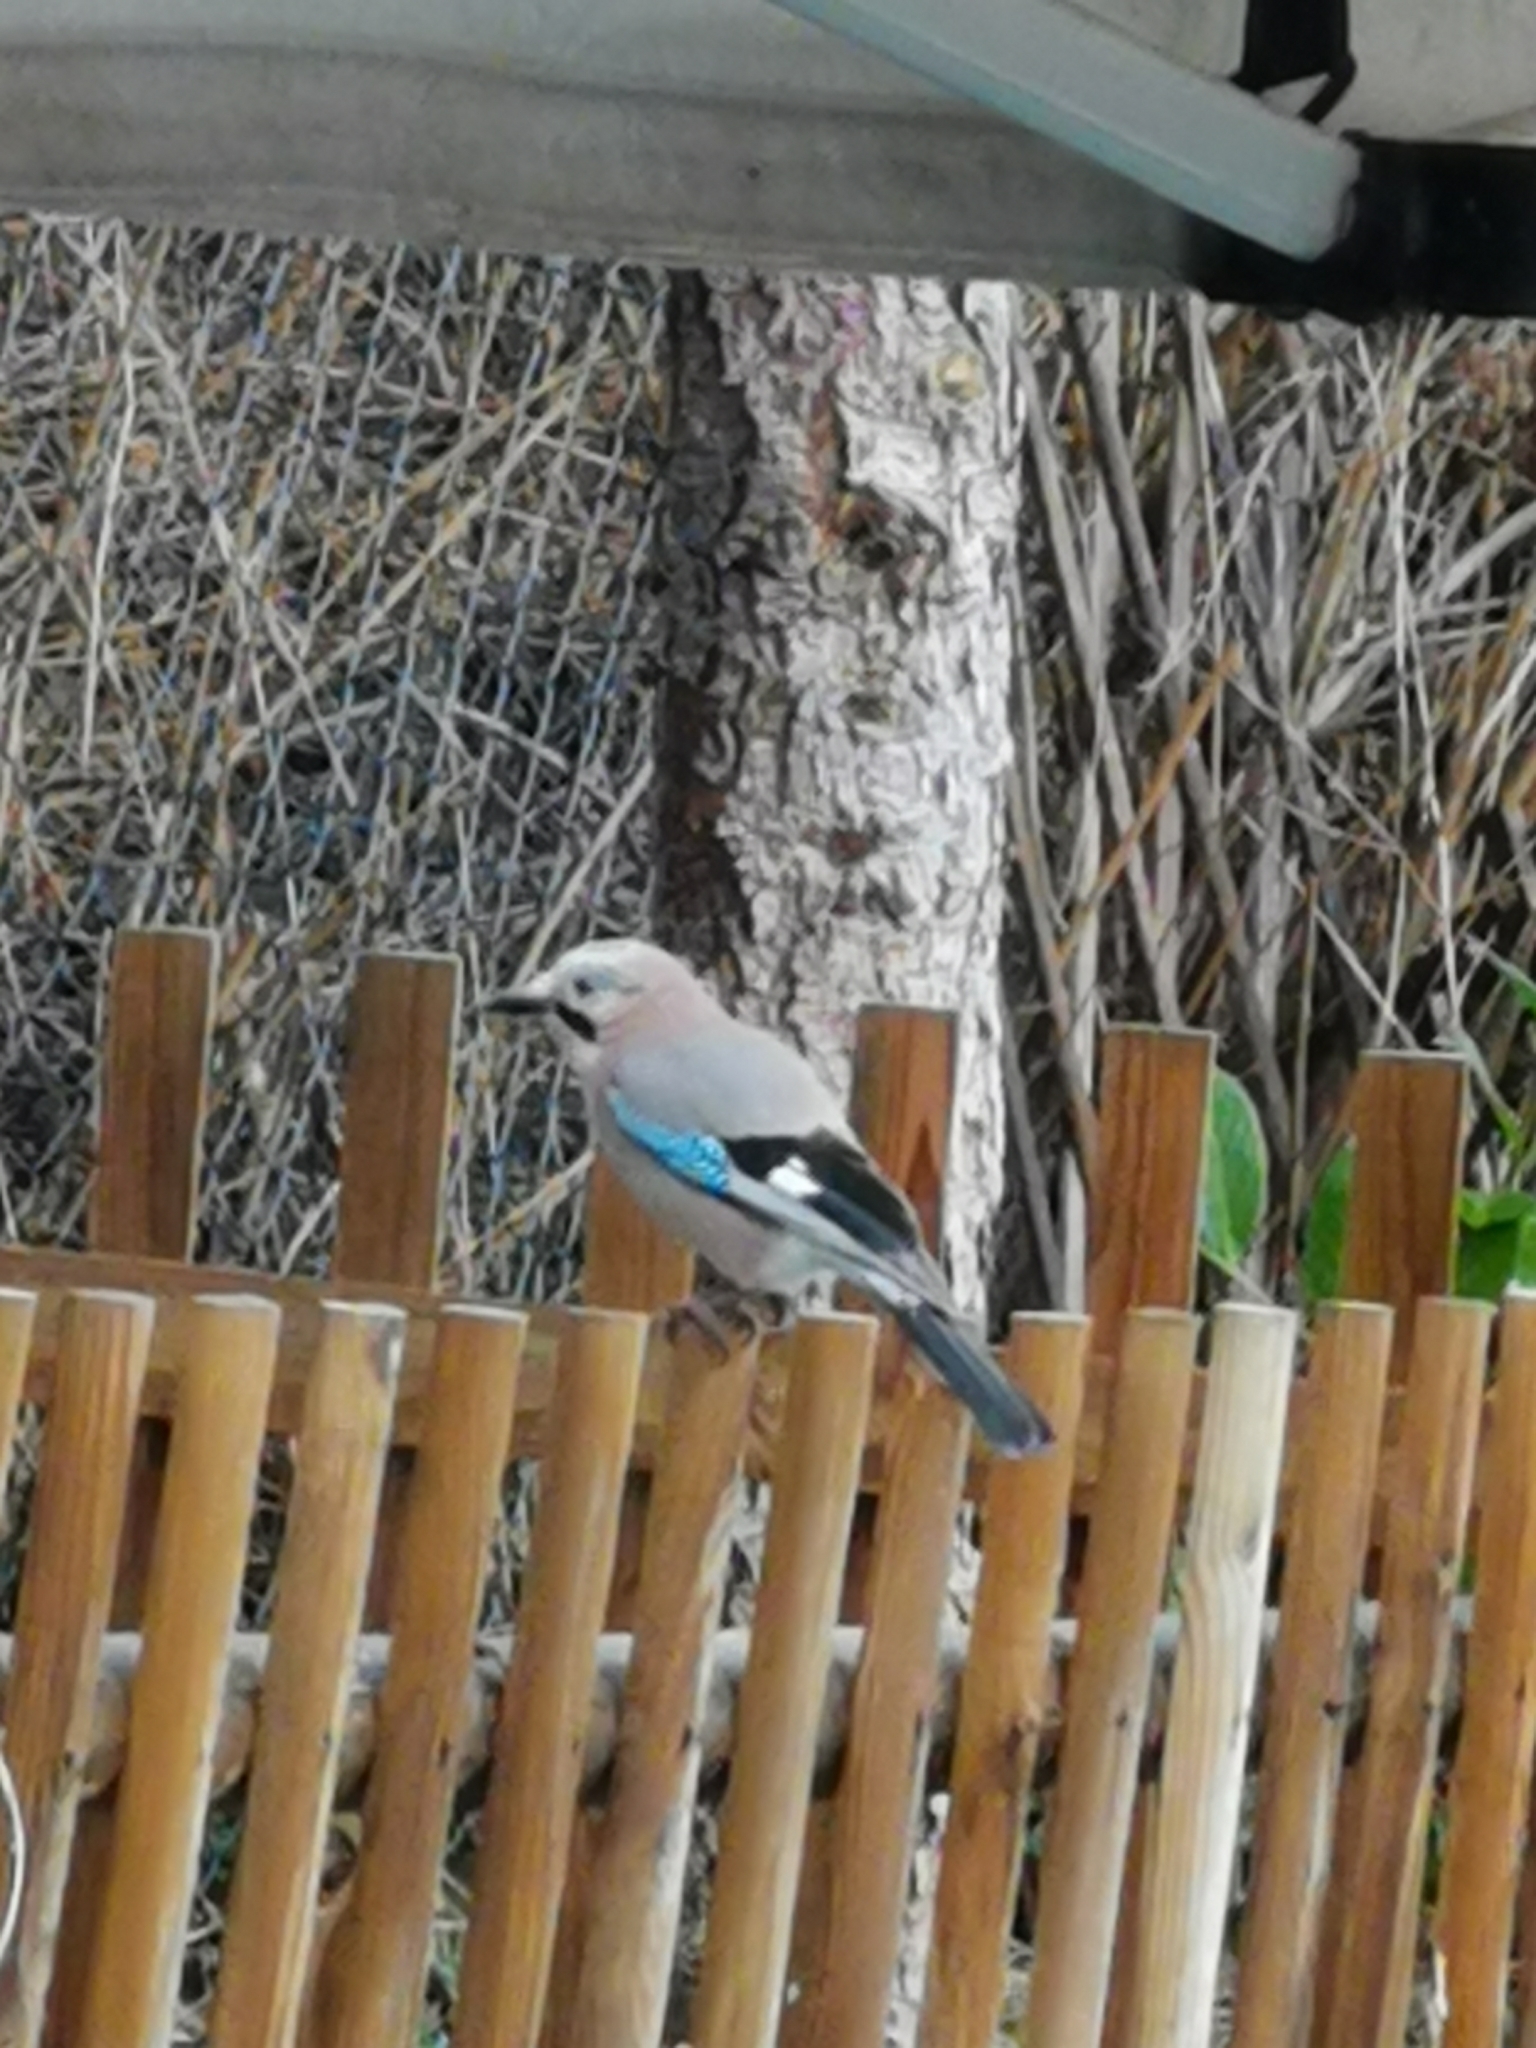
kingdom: Animalia
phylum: Chordata
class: Aves
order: Passeriformes
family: Corvidae
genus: Garrulus
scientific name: Garrulus glandarius
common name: Eurasian jay
